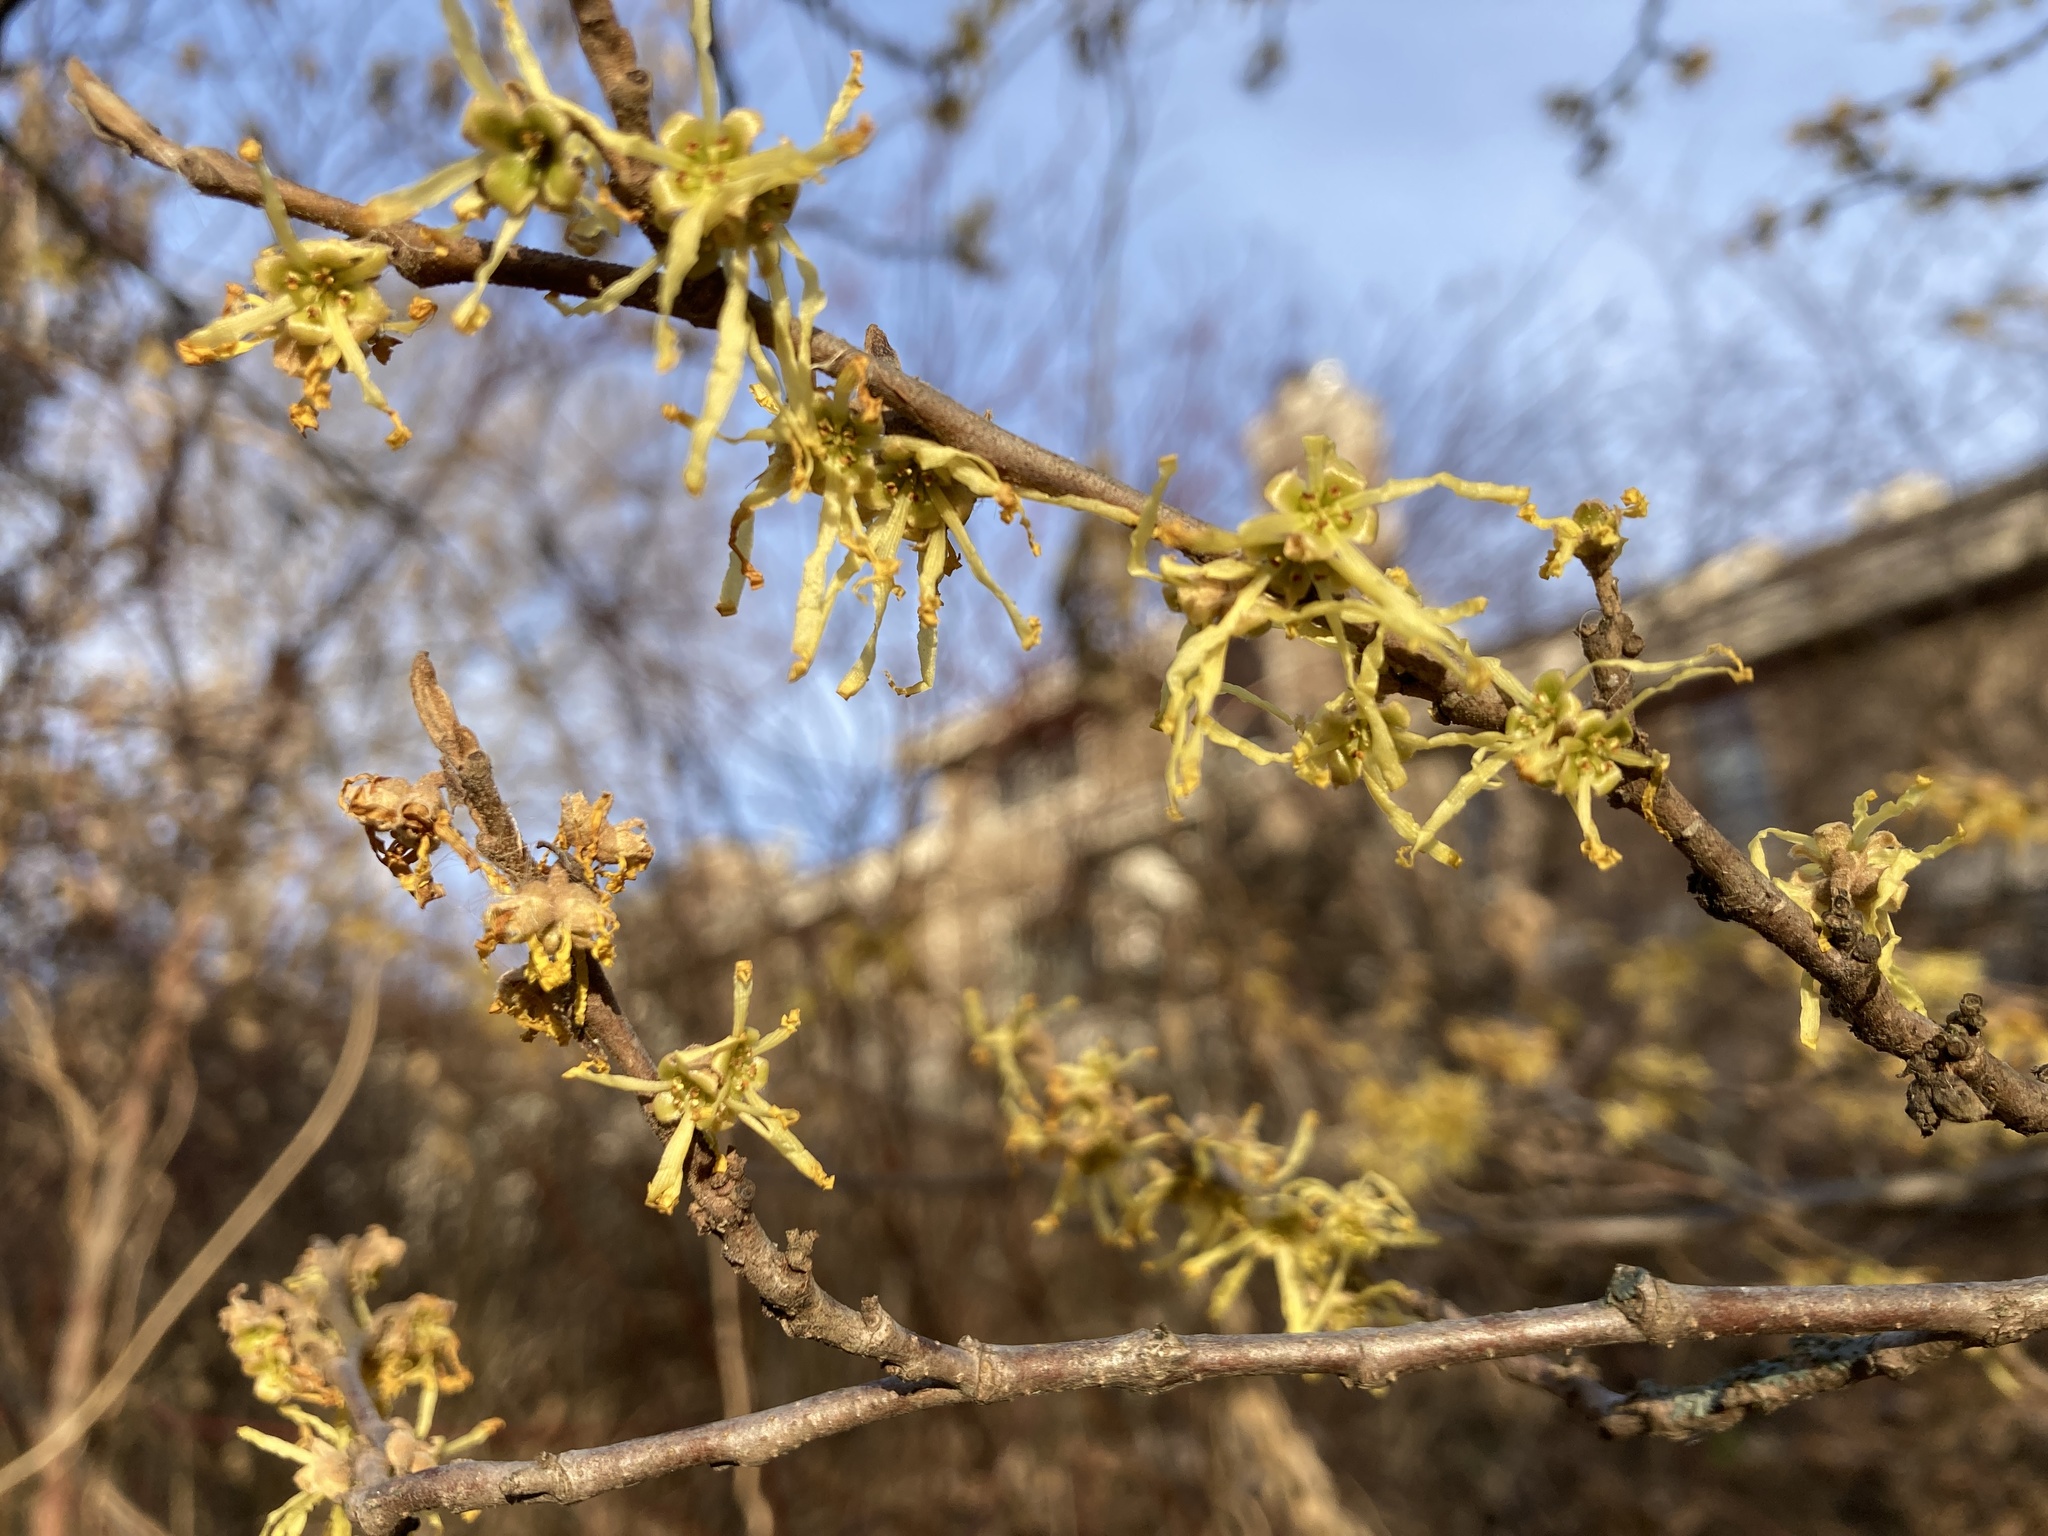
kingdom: Plantae
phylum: Tracheophyta
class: Magnoliopsida
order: Saxifragales
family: Hamamelidaceae
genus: Hamamelis
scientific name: Hamamelis virginiana
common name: Witch-hazel
